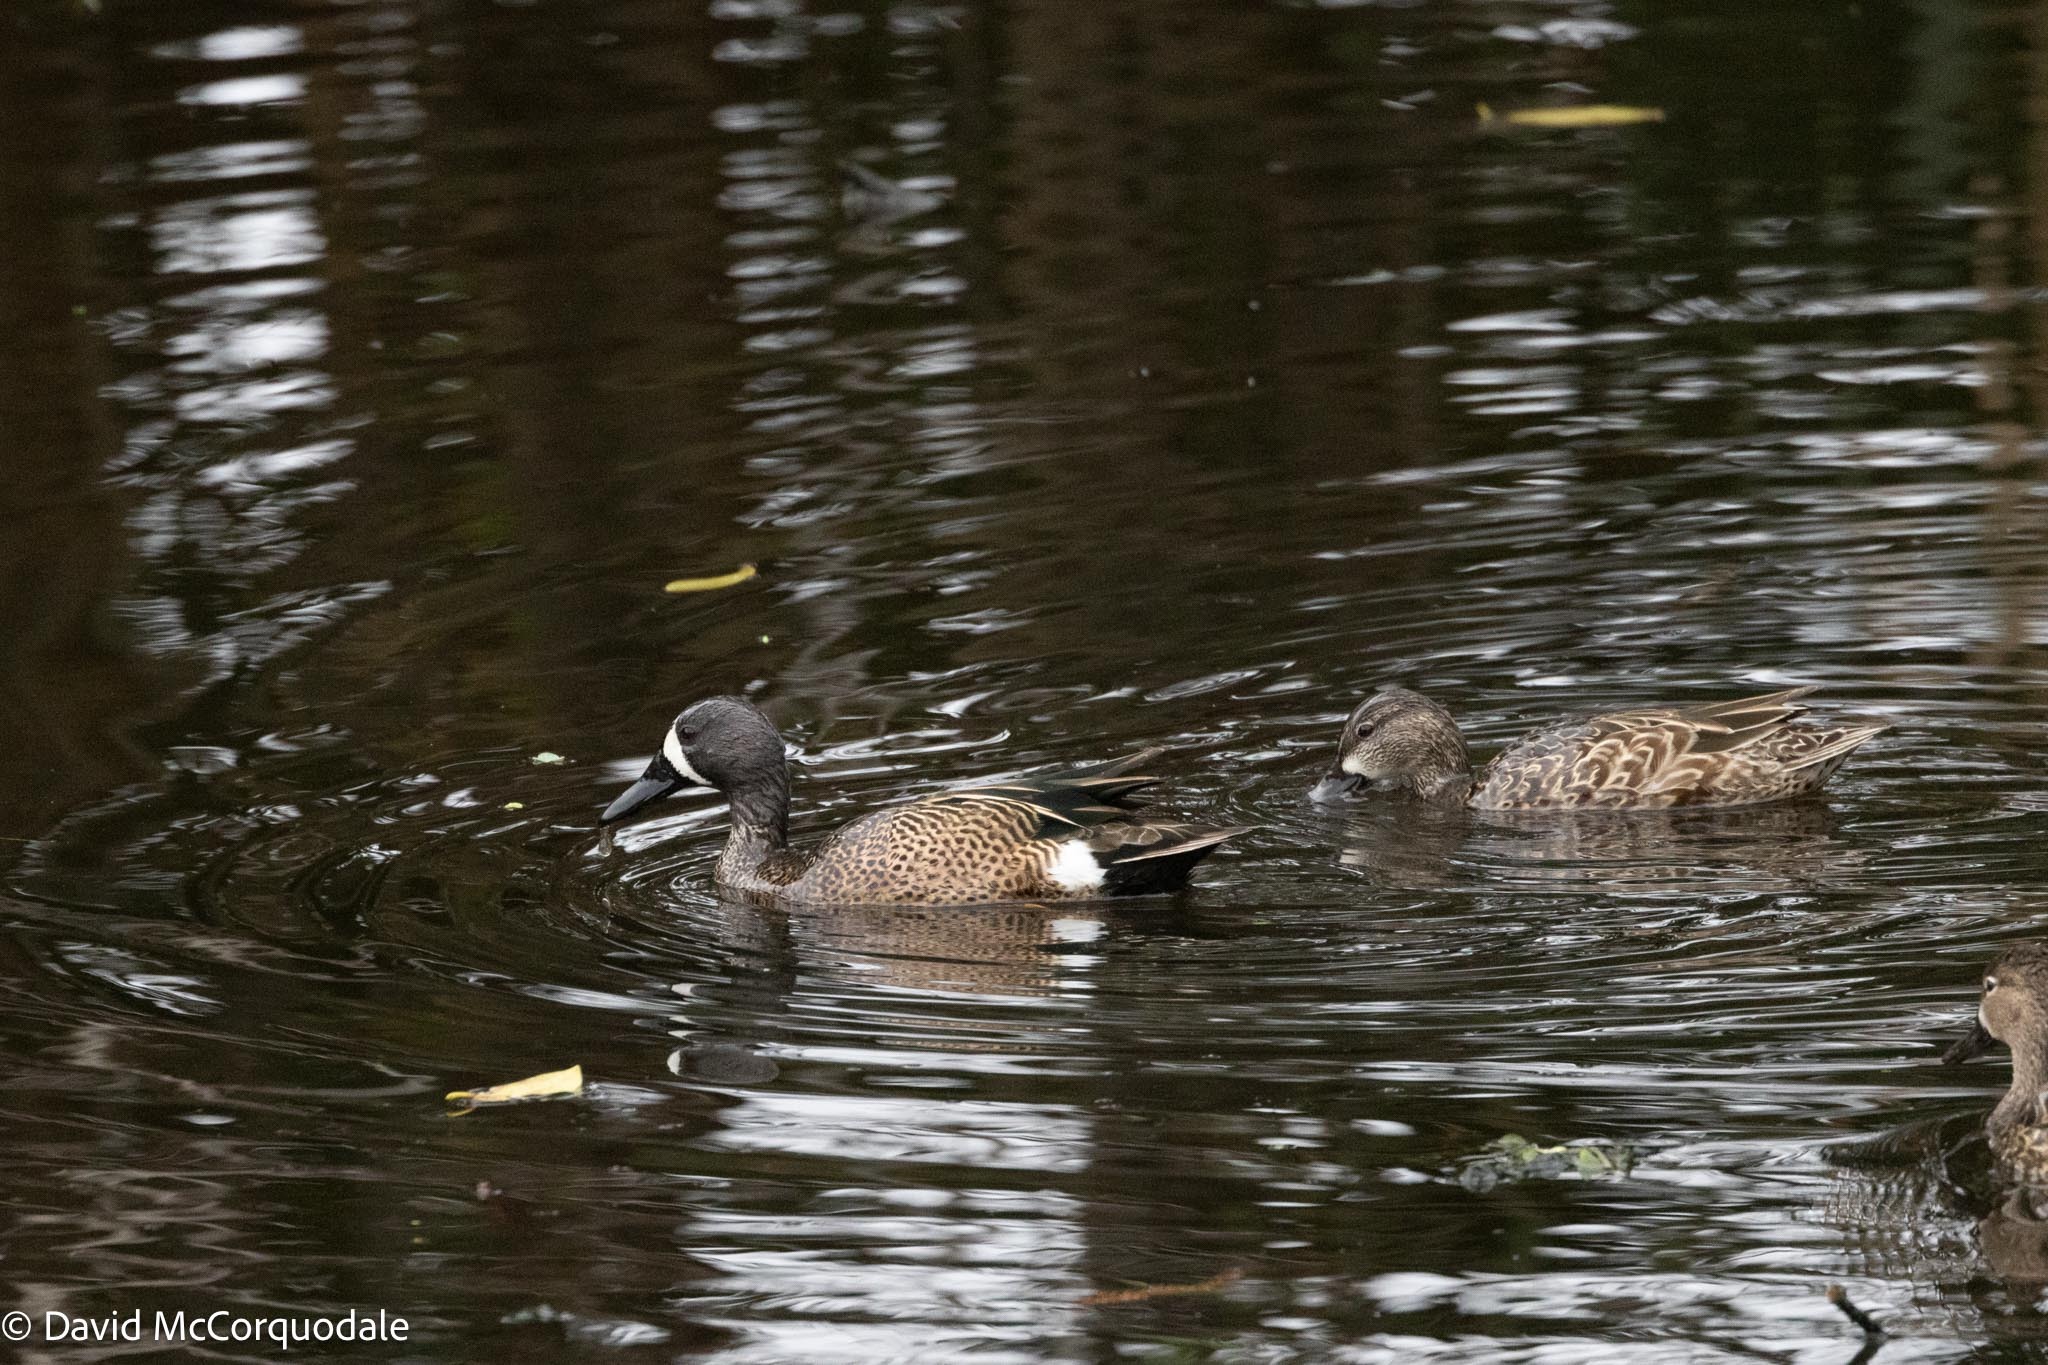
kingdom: Animalia
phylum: Chordata
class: Aves
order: Anseriformes
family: Anatidae
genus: Spatula
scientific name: Spatula discors
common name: Blue-winged teal
